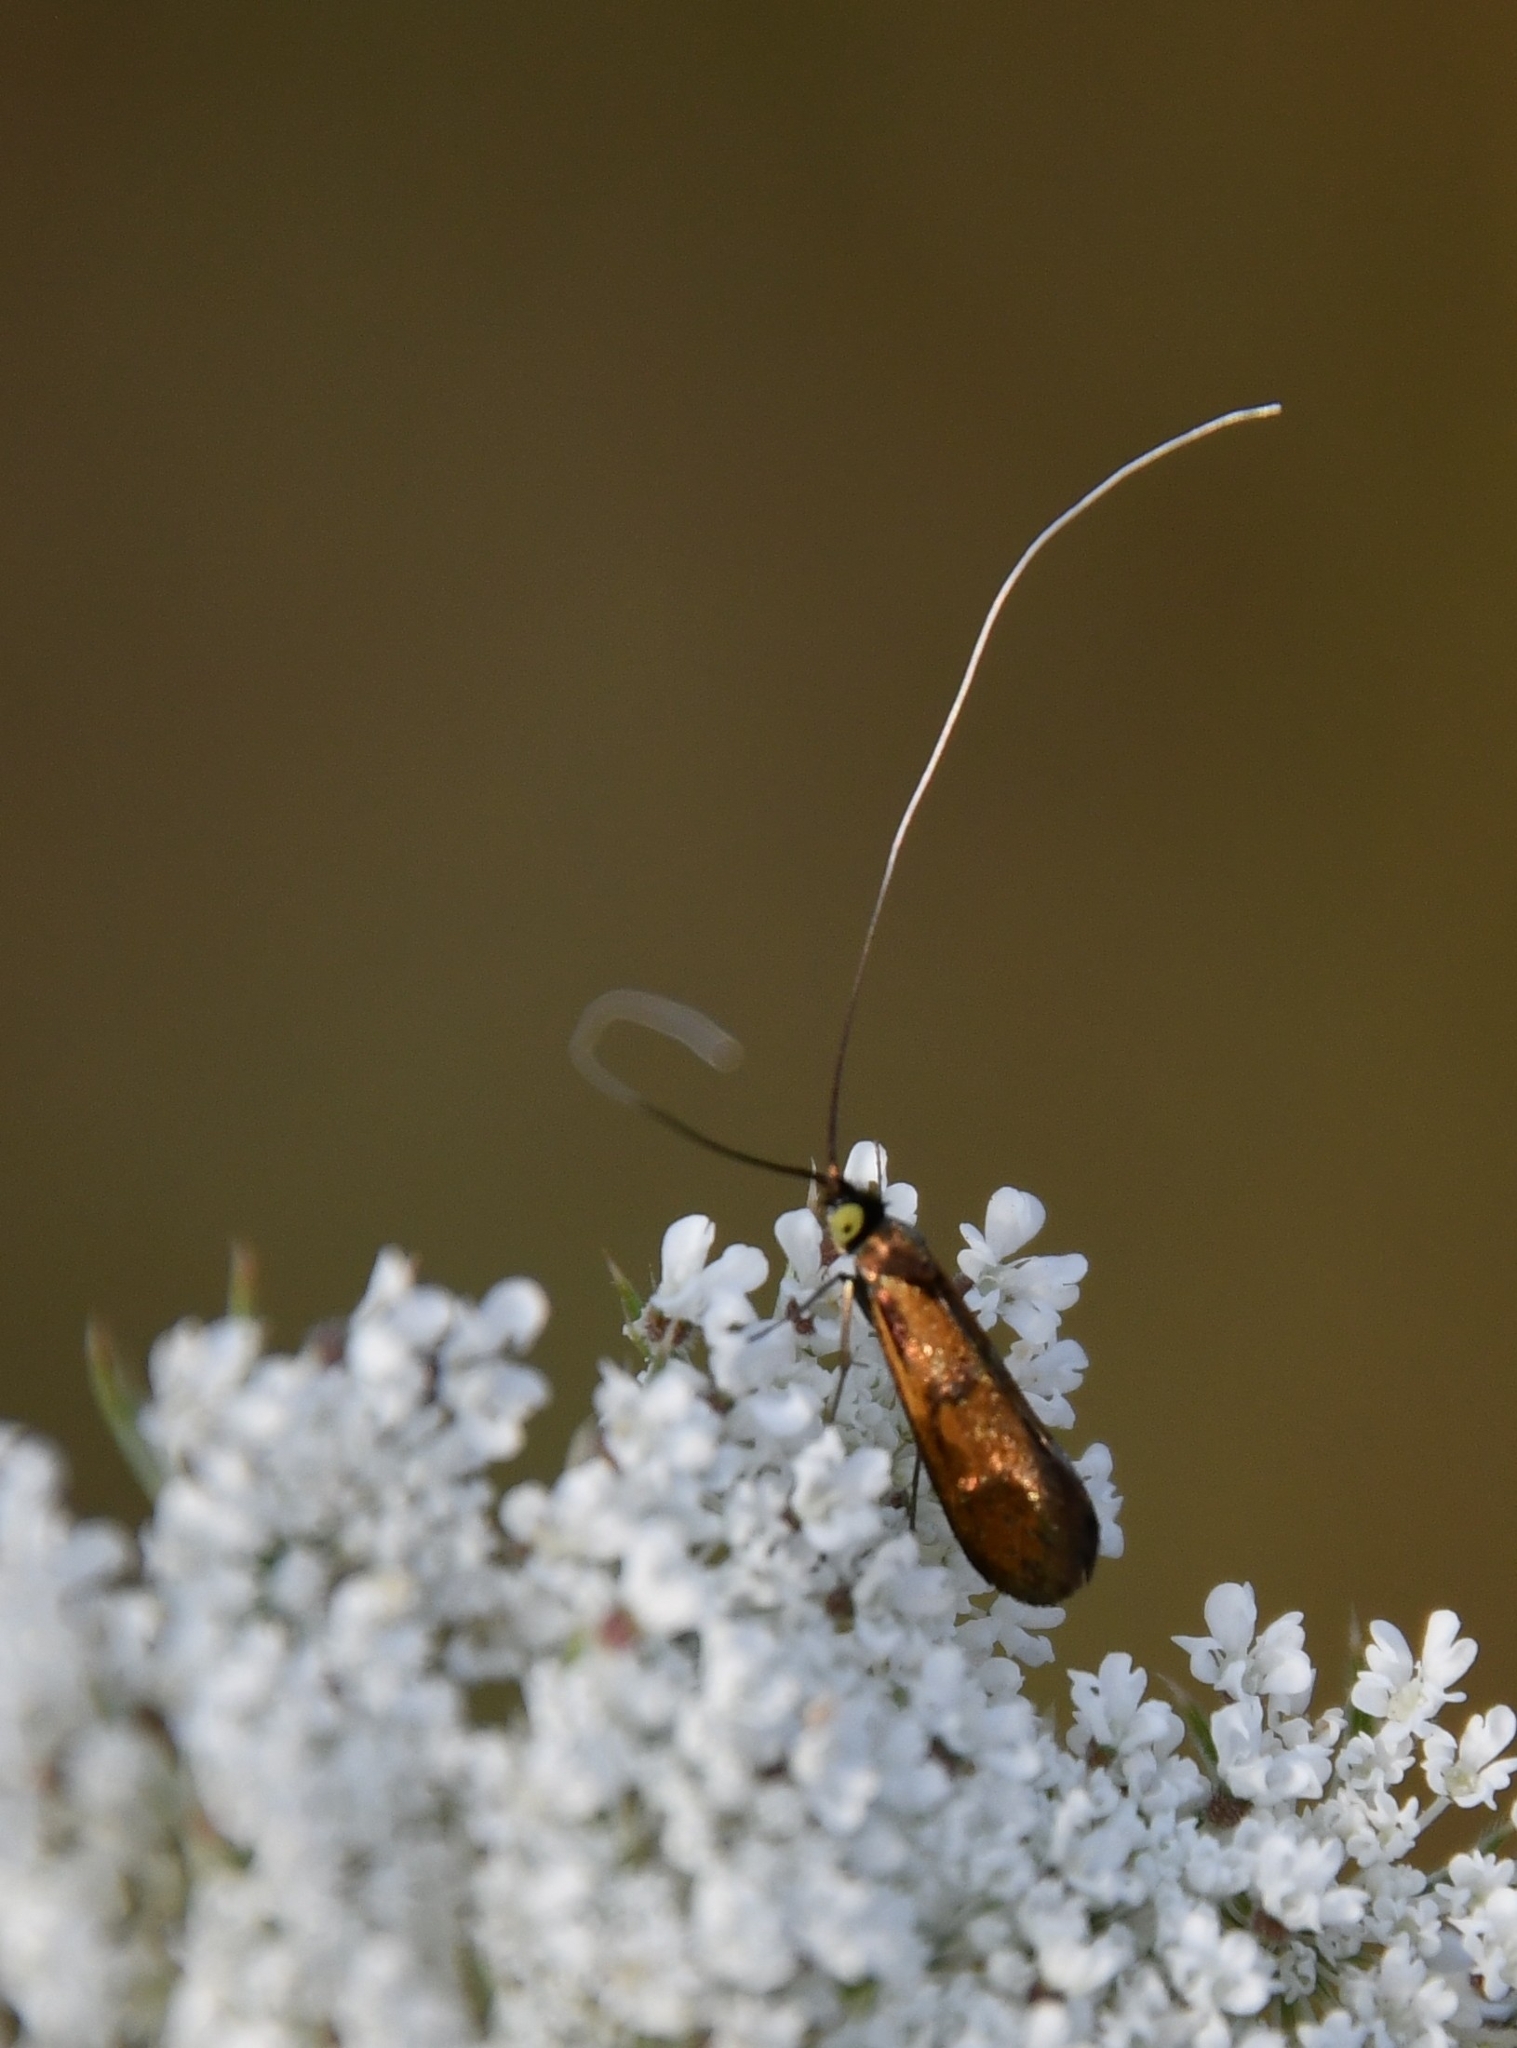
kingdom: Animalia
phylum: Arthropoda
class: Insecta
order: Lepidoptera
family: Adelidae
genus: Nemophora
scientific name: Nemophora chrysochraon
